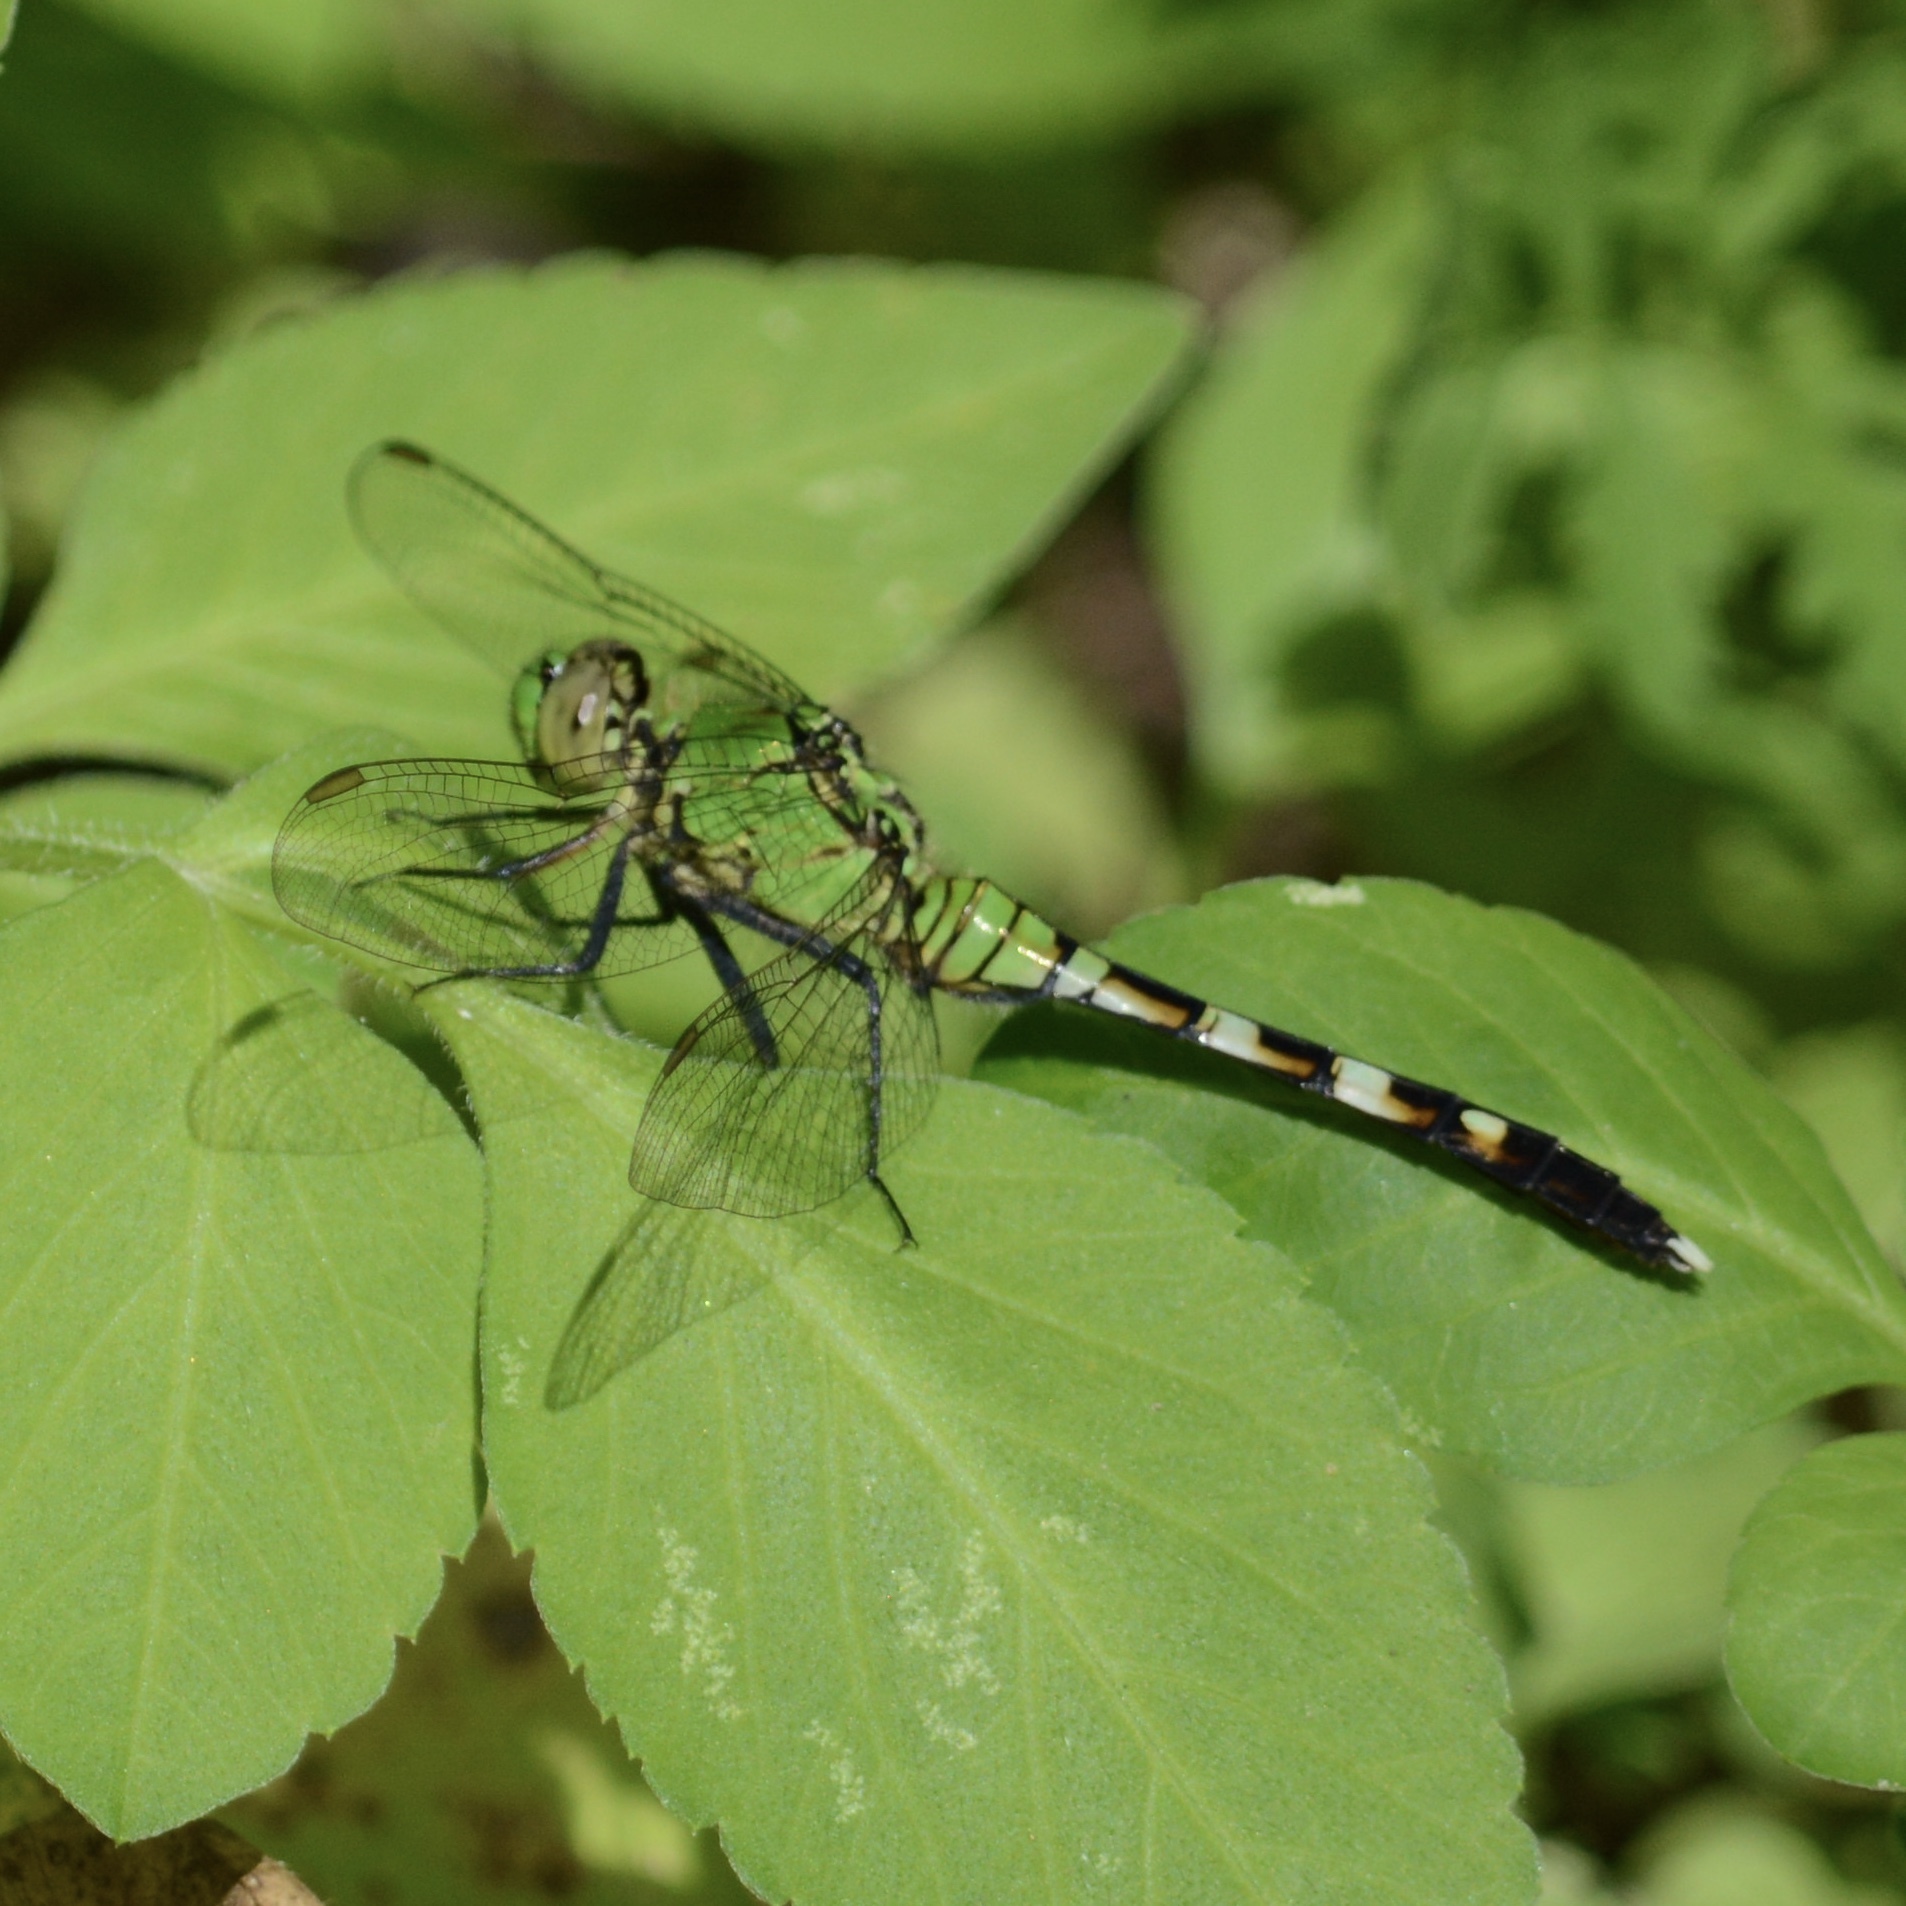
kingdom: Animalia
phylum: Arthropoda
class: Insecta
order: Odonata
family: Libellulidae
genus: Erythemis
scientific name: Erythemis simplicicollis
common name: Eastern pondhawk
